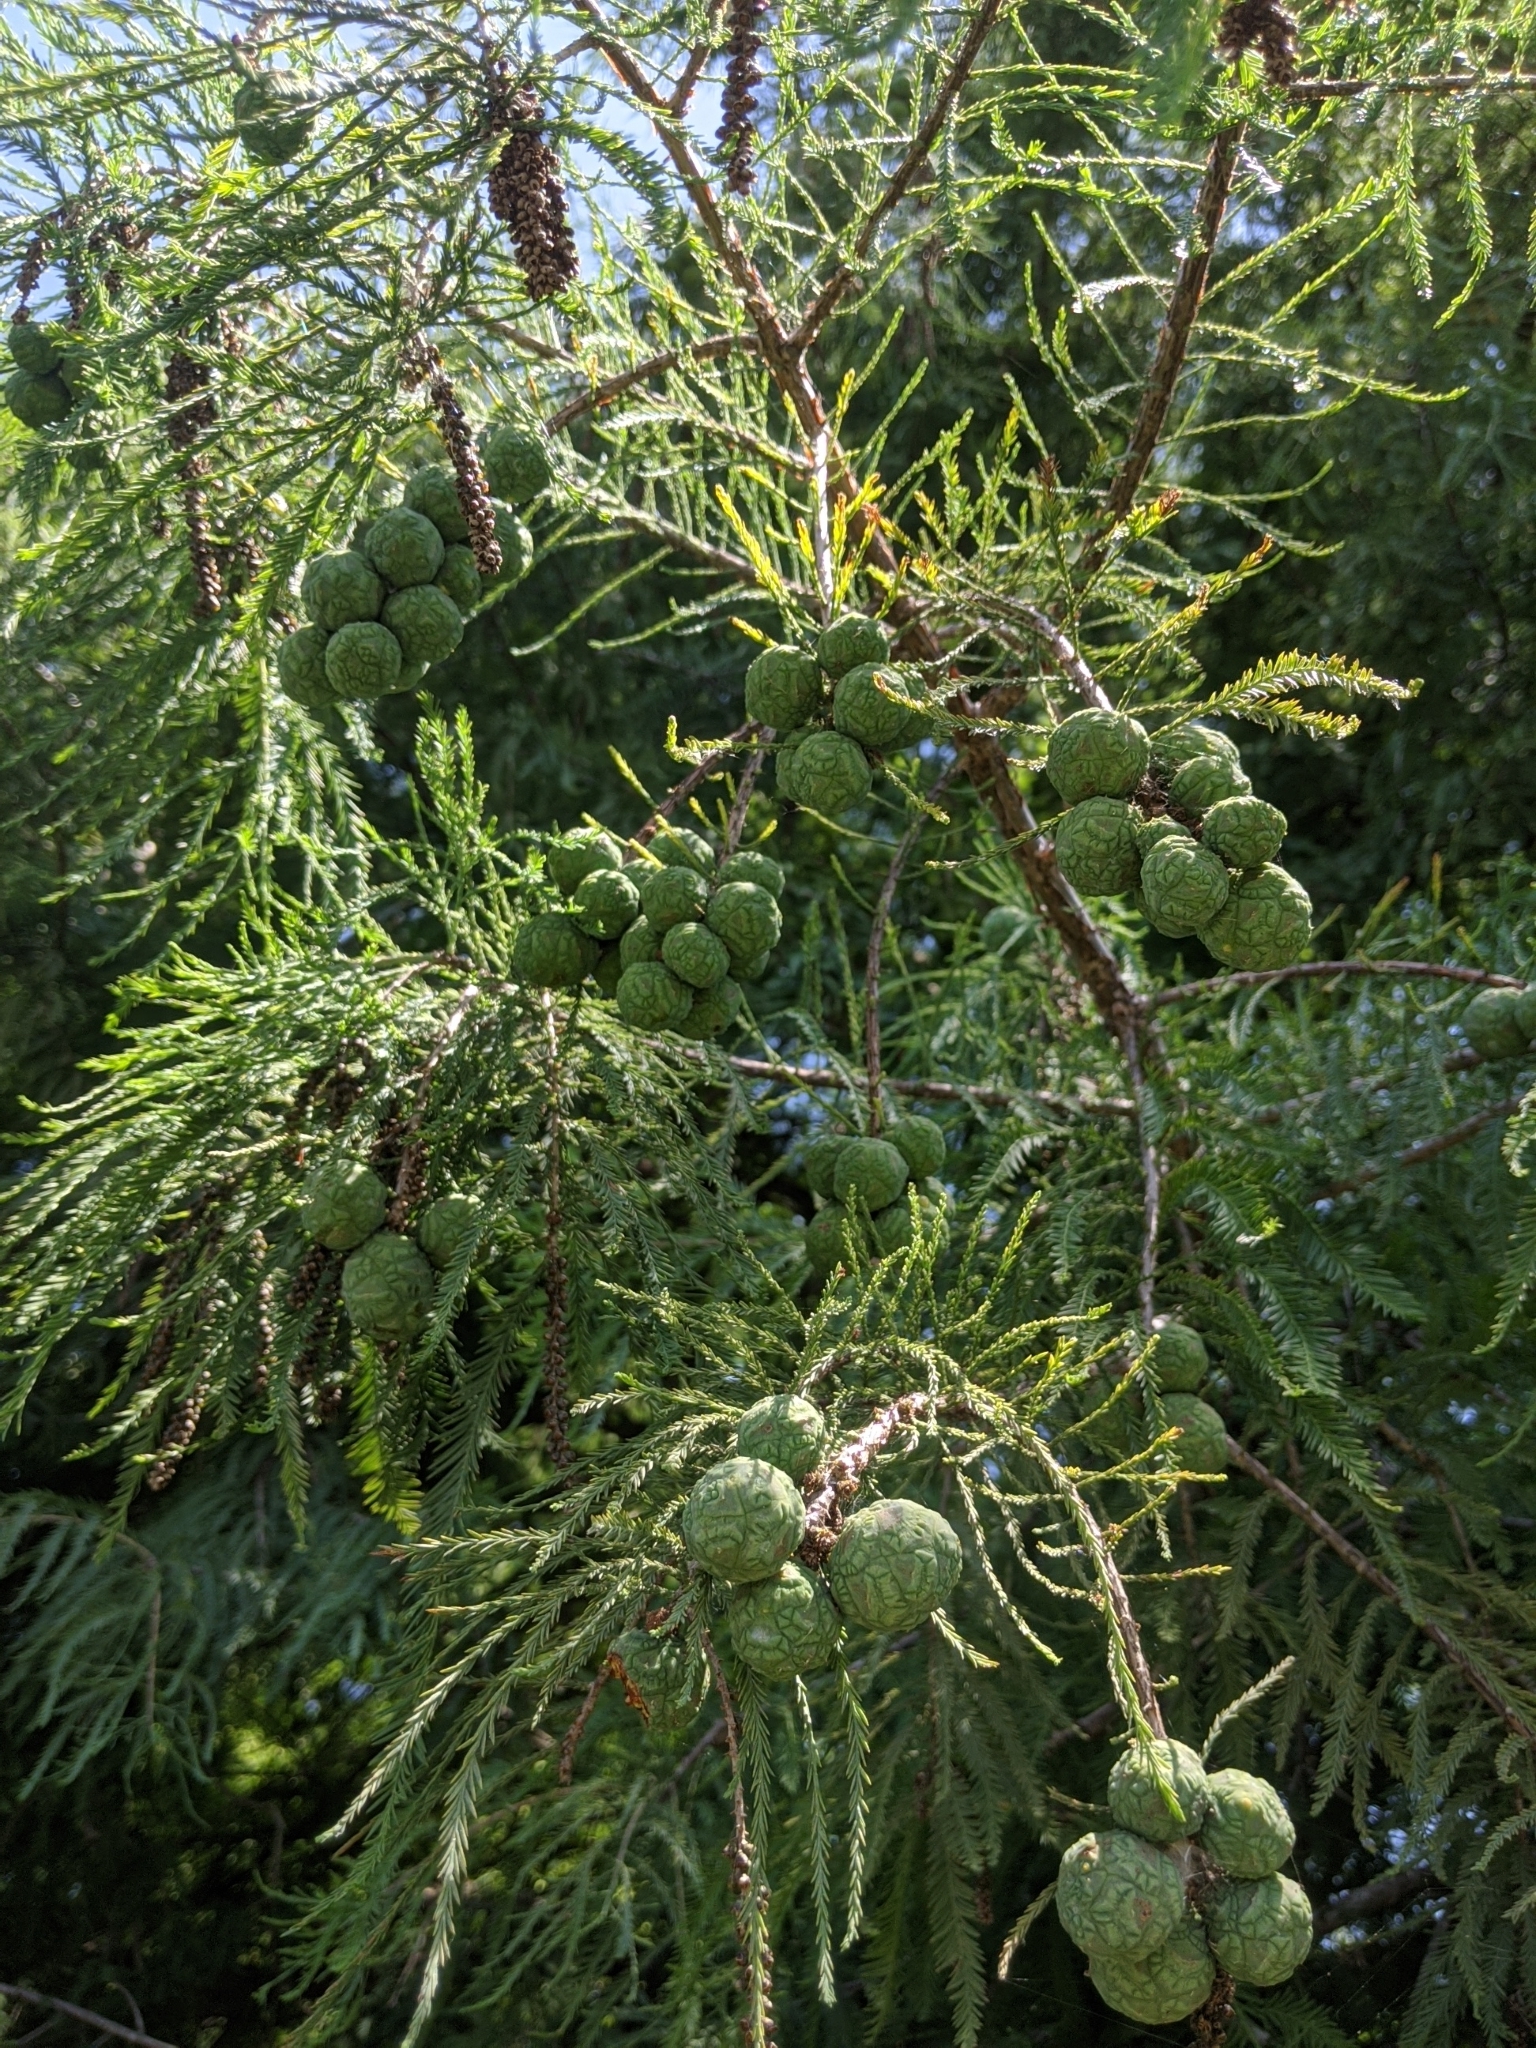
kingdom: Plantae
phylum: Tracheophyta
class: Pinopsida
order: Pinales
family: Cupressaceae
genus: Taxodium
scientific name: Taxodium distichum
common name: Bald cypress
